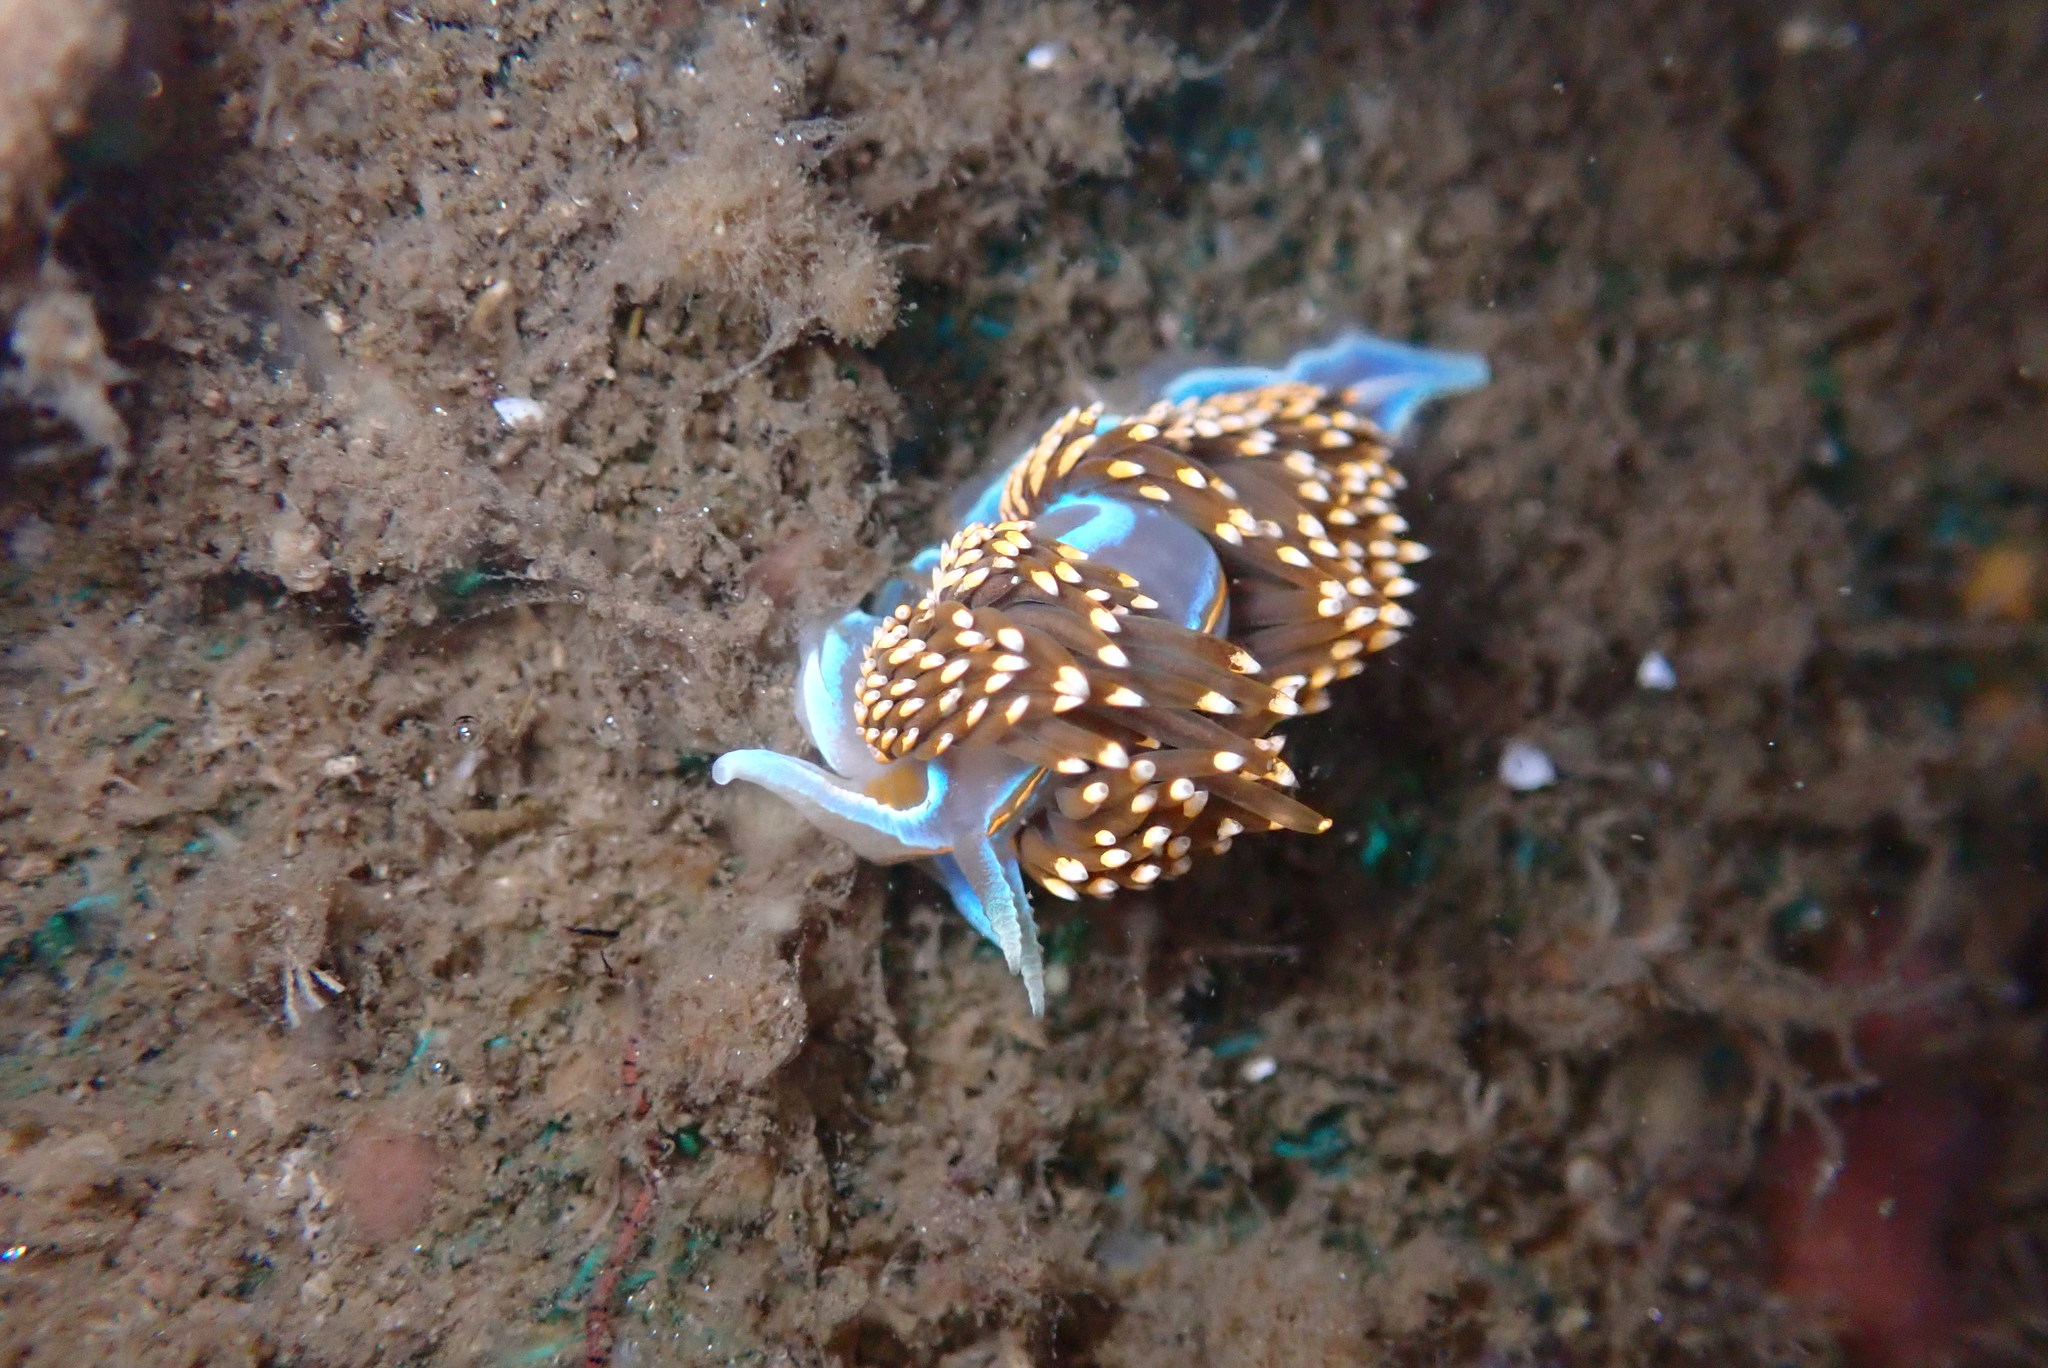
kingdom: Animalia
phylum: Mollusca
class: Gastropoda
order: Nudibranchia
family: Myrrhinidae
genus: Hermissenda
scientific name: Hermissenda opalescens
